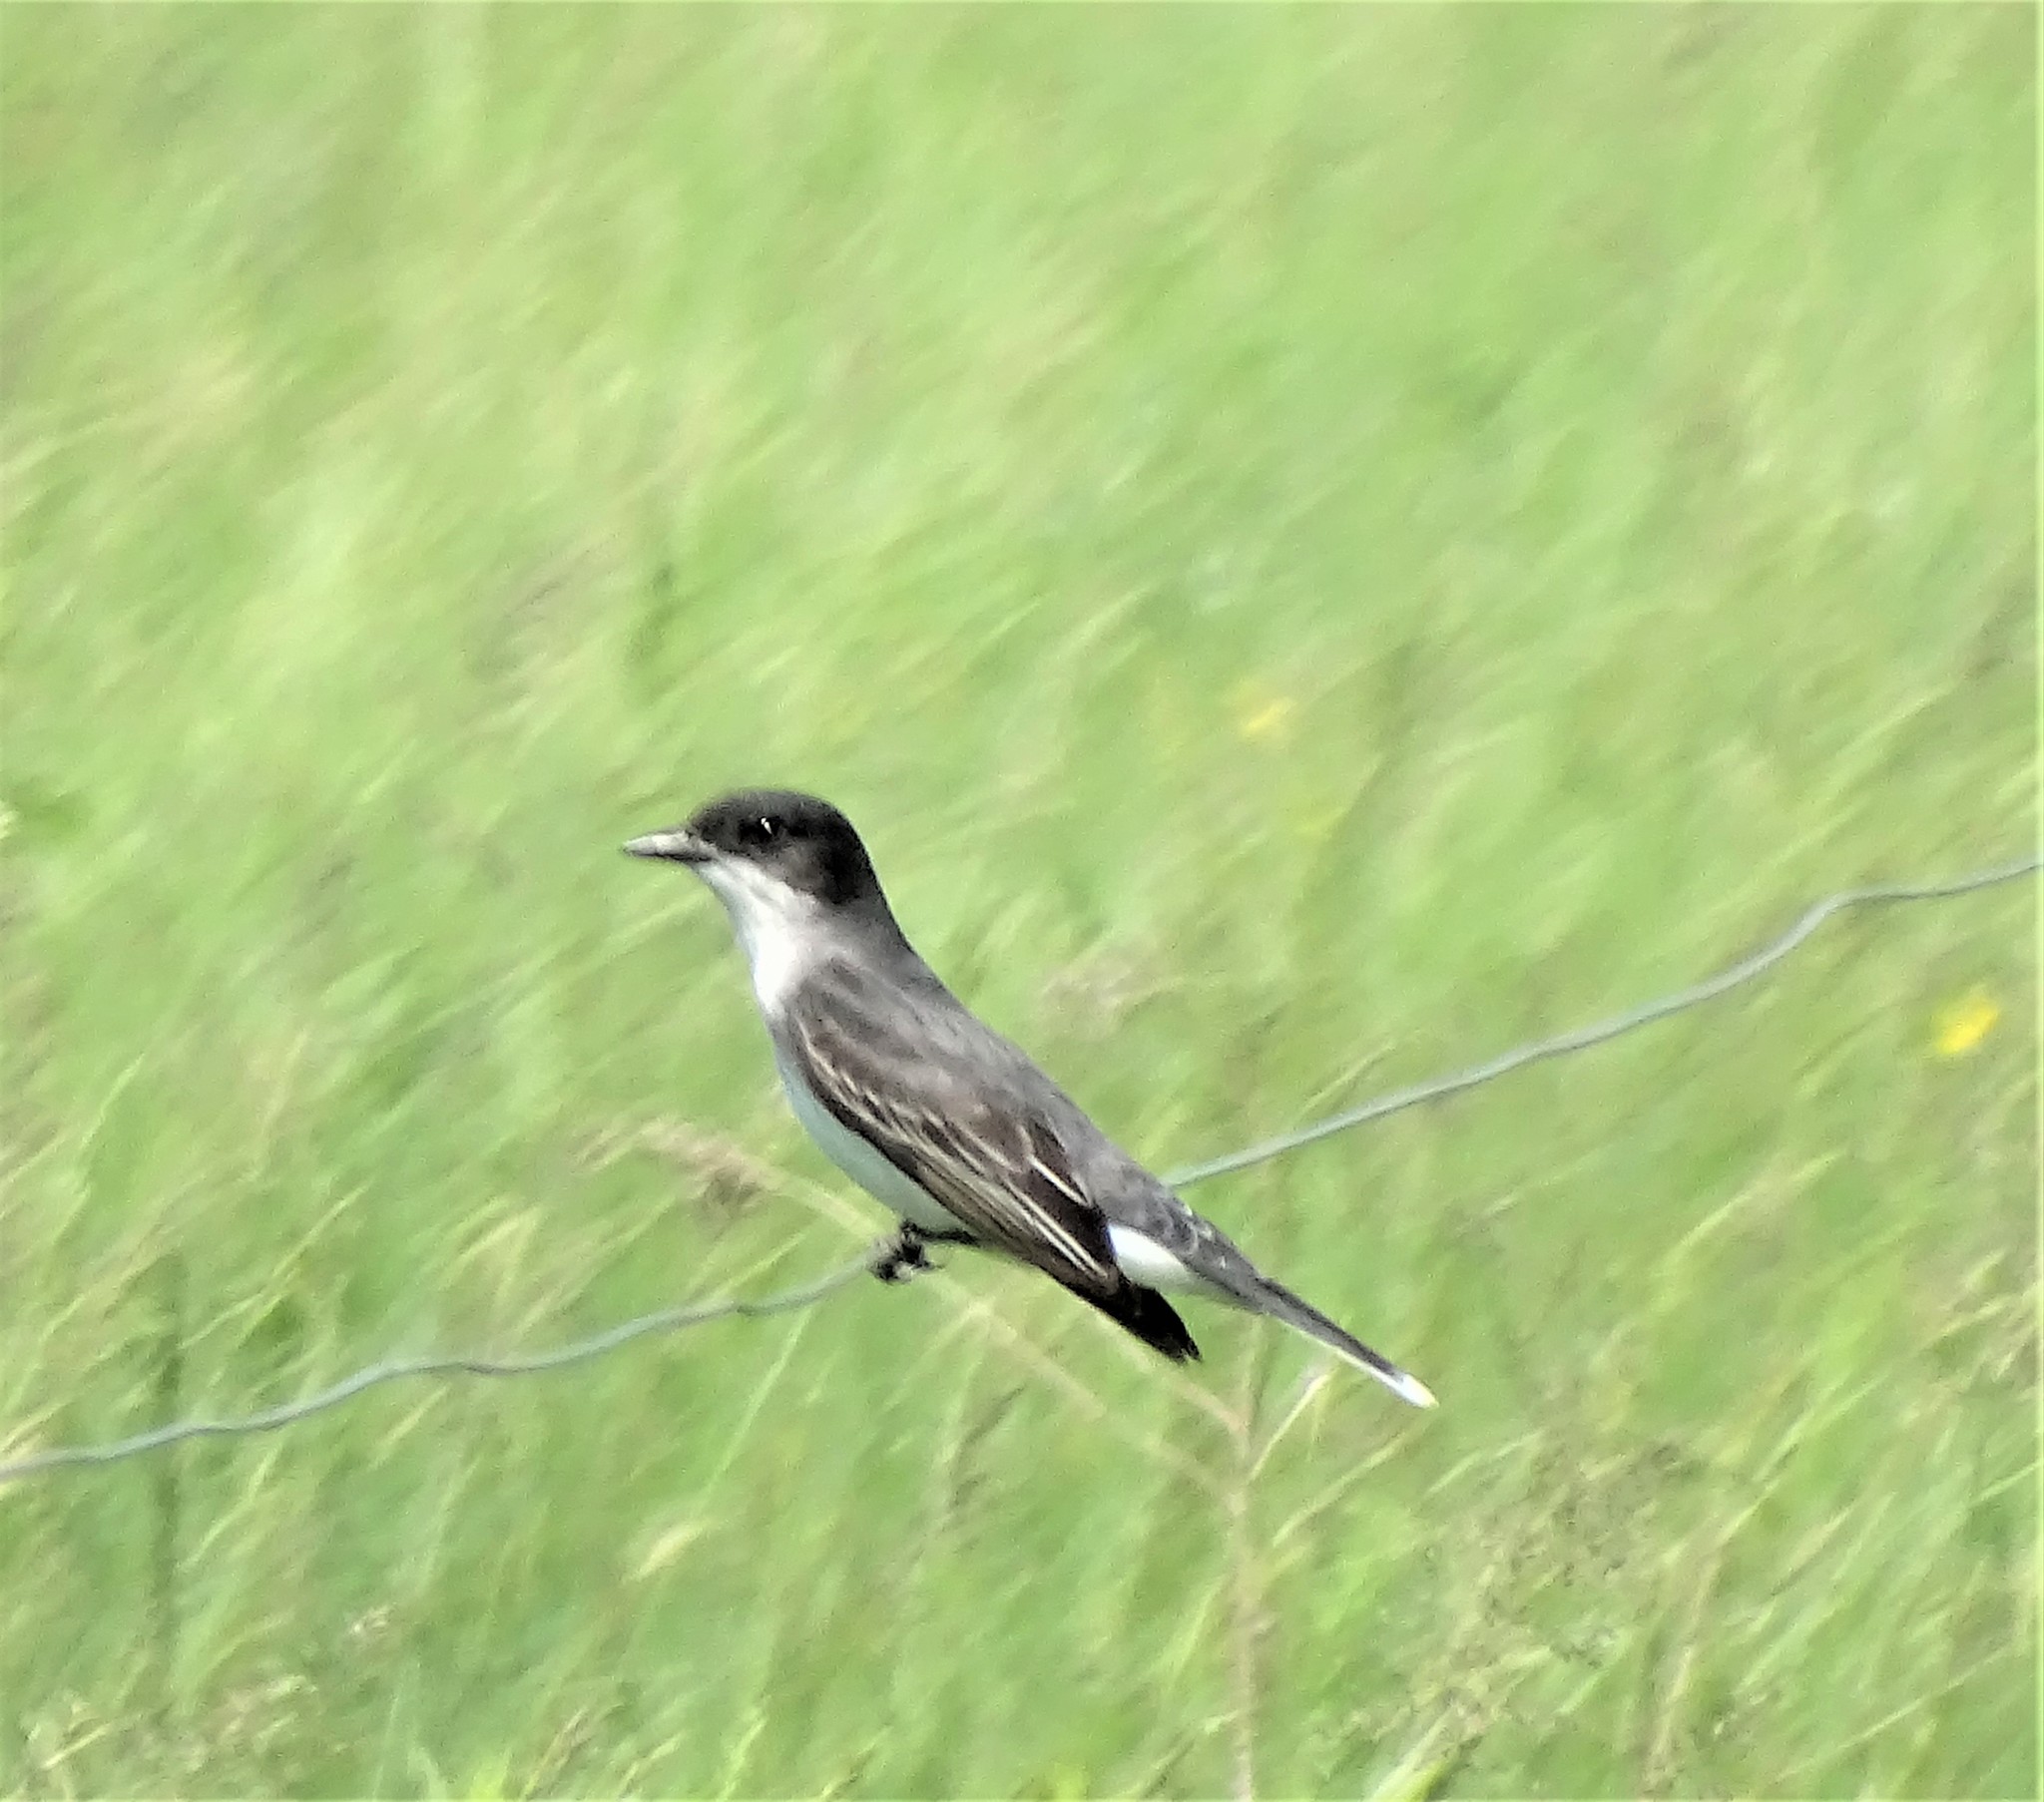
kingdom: Animalia
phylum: Chordata
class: Aves
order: Passeriformes
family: Tyrannidae
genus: Tyrannus
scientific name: Tyrannus tyrannus
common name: Eastern kingbird
